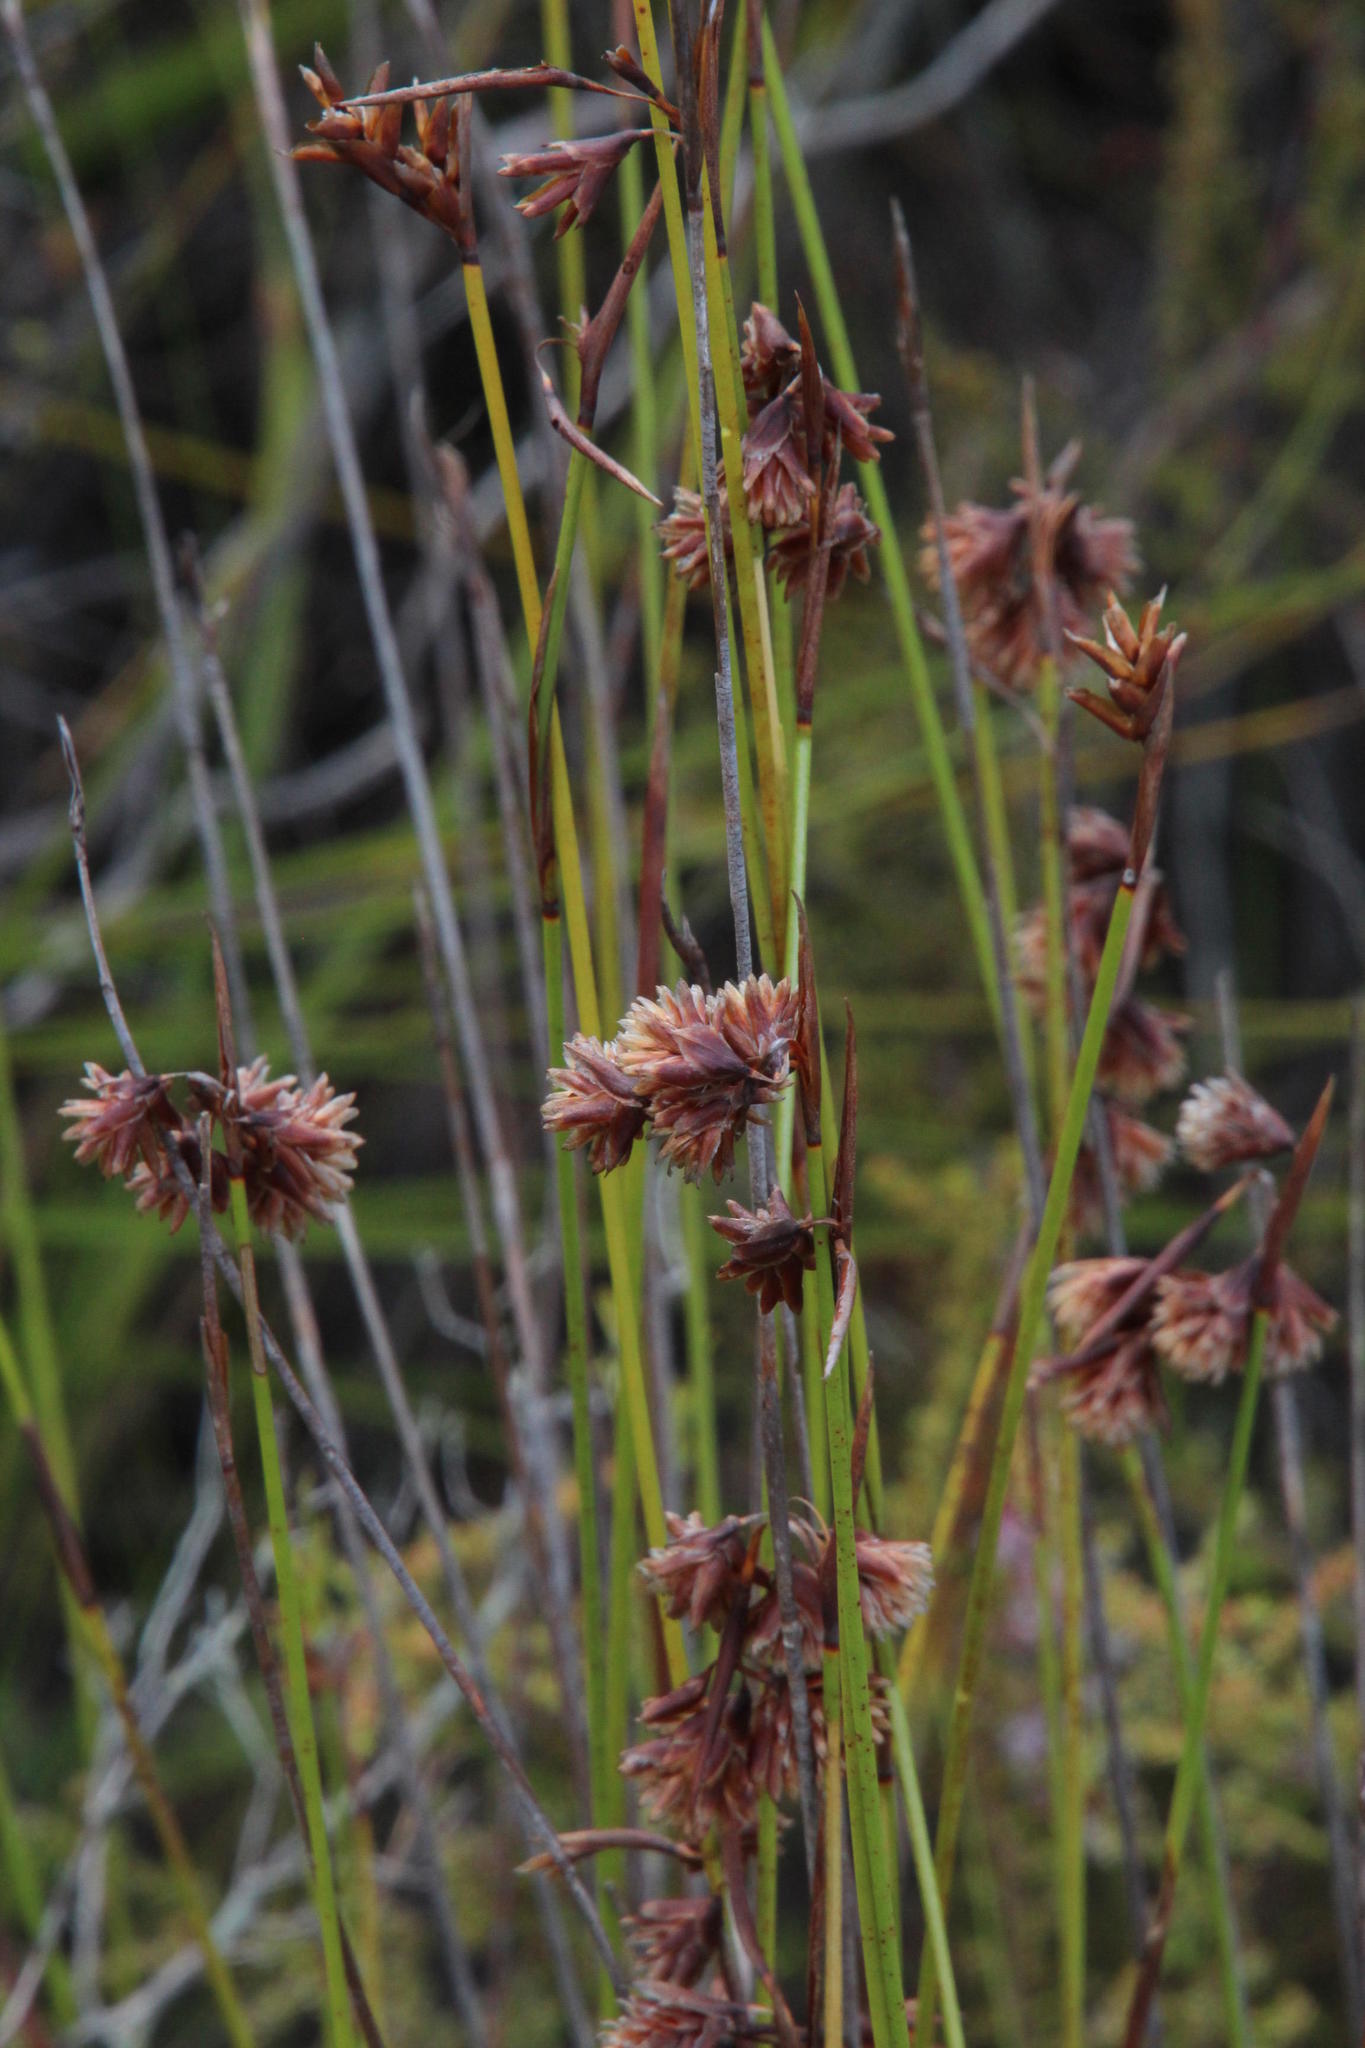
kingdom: Plantae
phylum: Tracheophyta
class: Liliopsida
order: Poales
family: Restionaceae
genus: Staberoha
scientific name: Staberoha cernua
